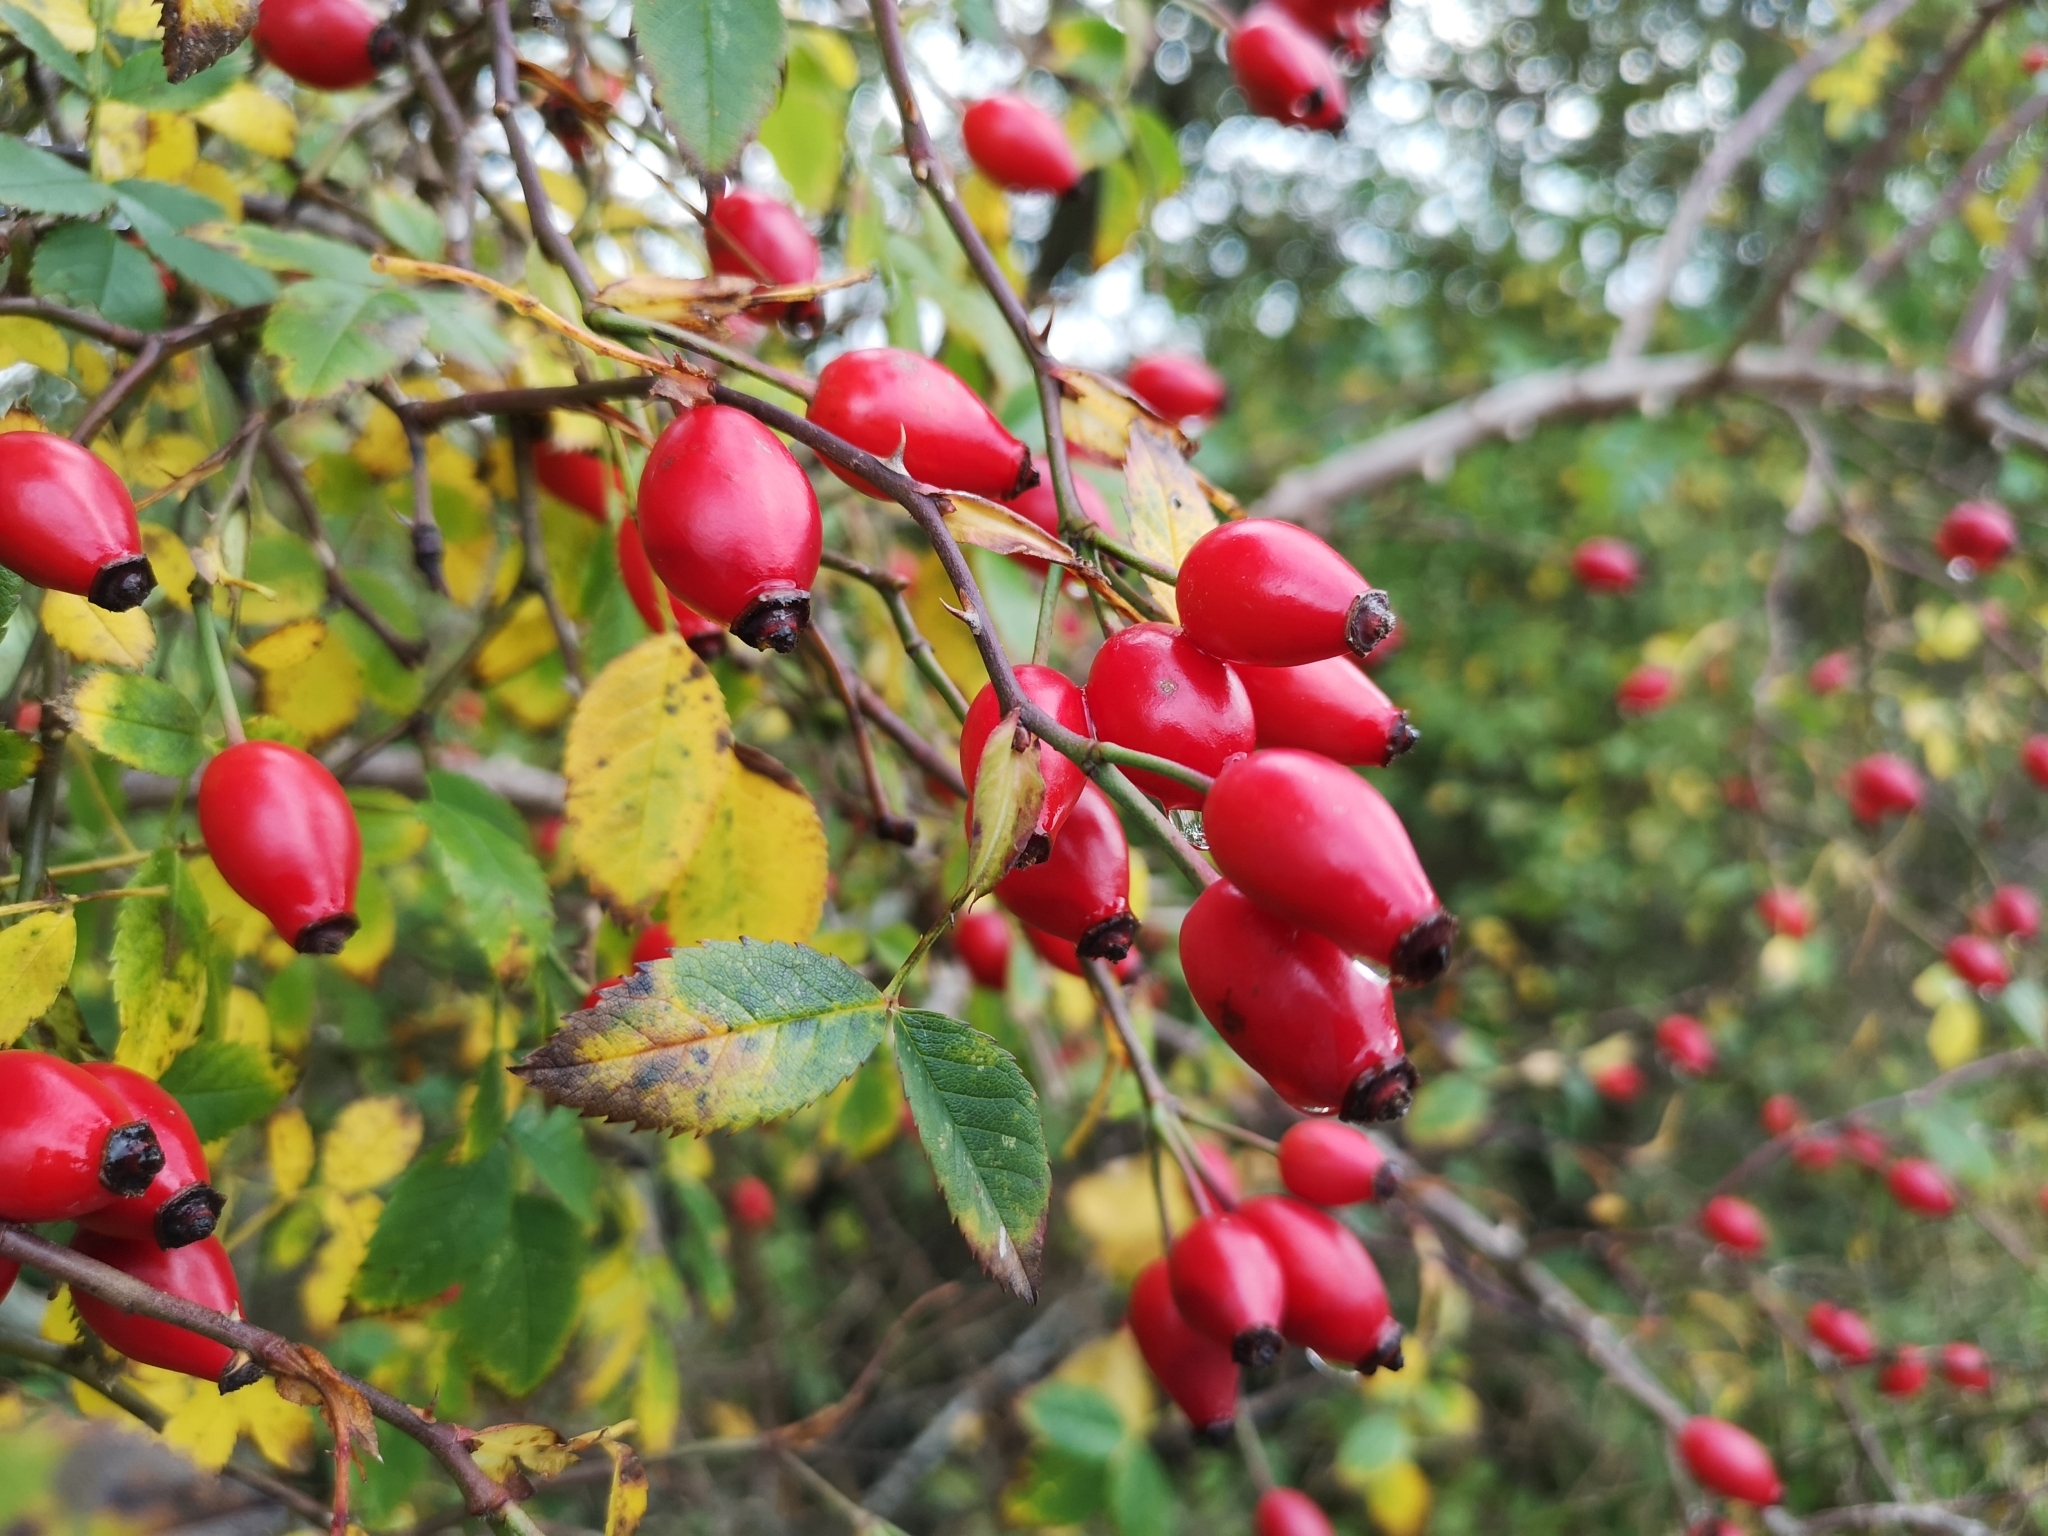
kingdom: Plantae
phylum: Tracheophyta
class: Magnoliopsida
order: Rosales
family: Rosaceae
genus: Rosa
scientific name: Rosa canina
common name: Dog rose
